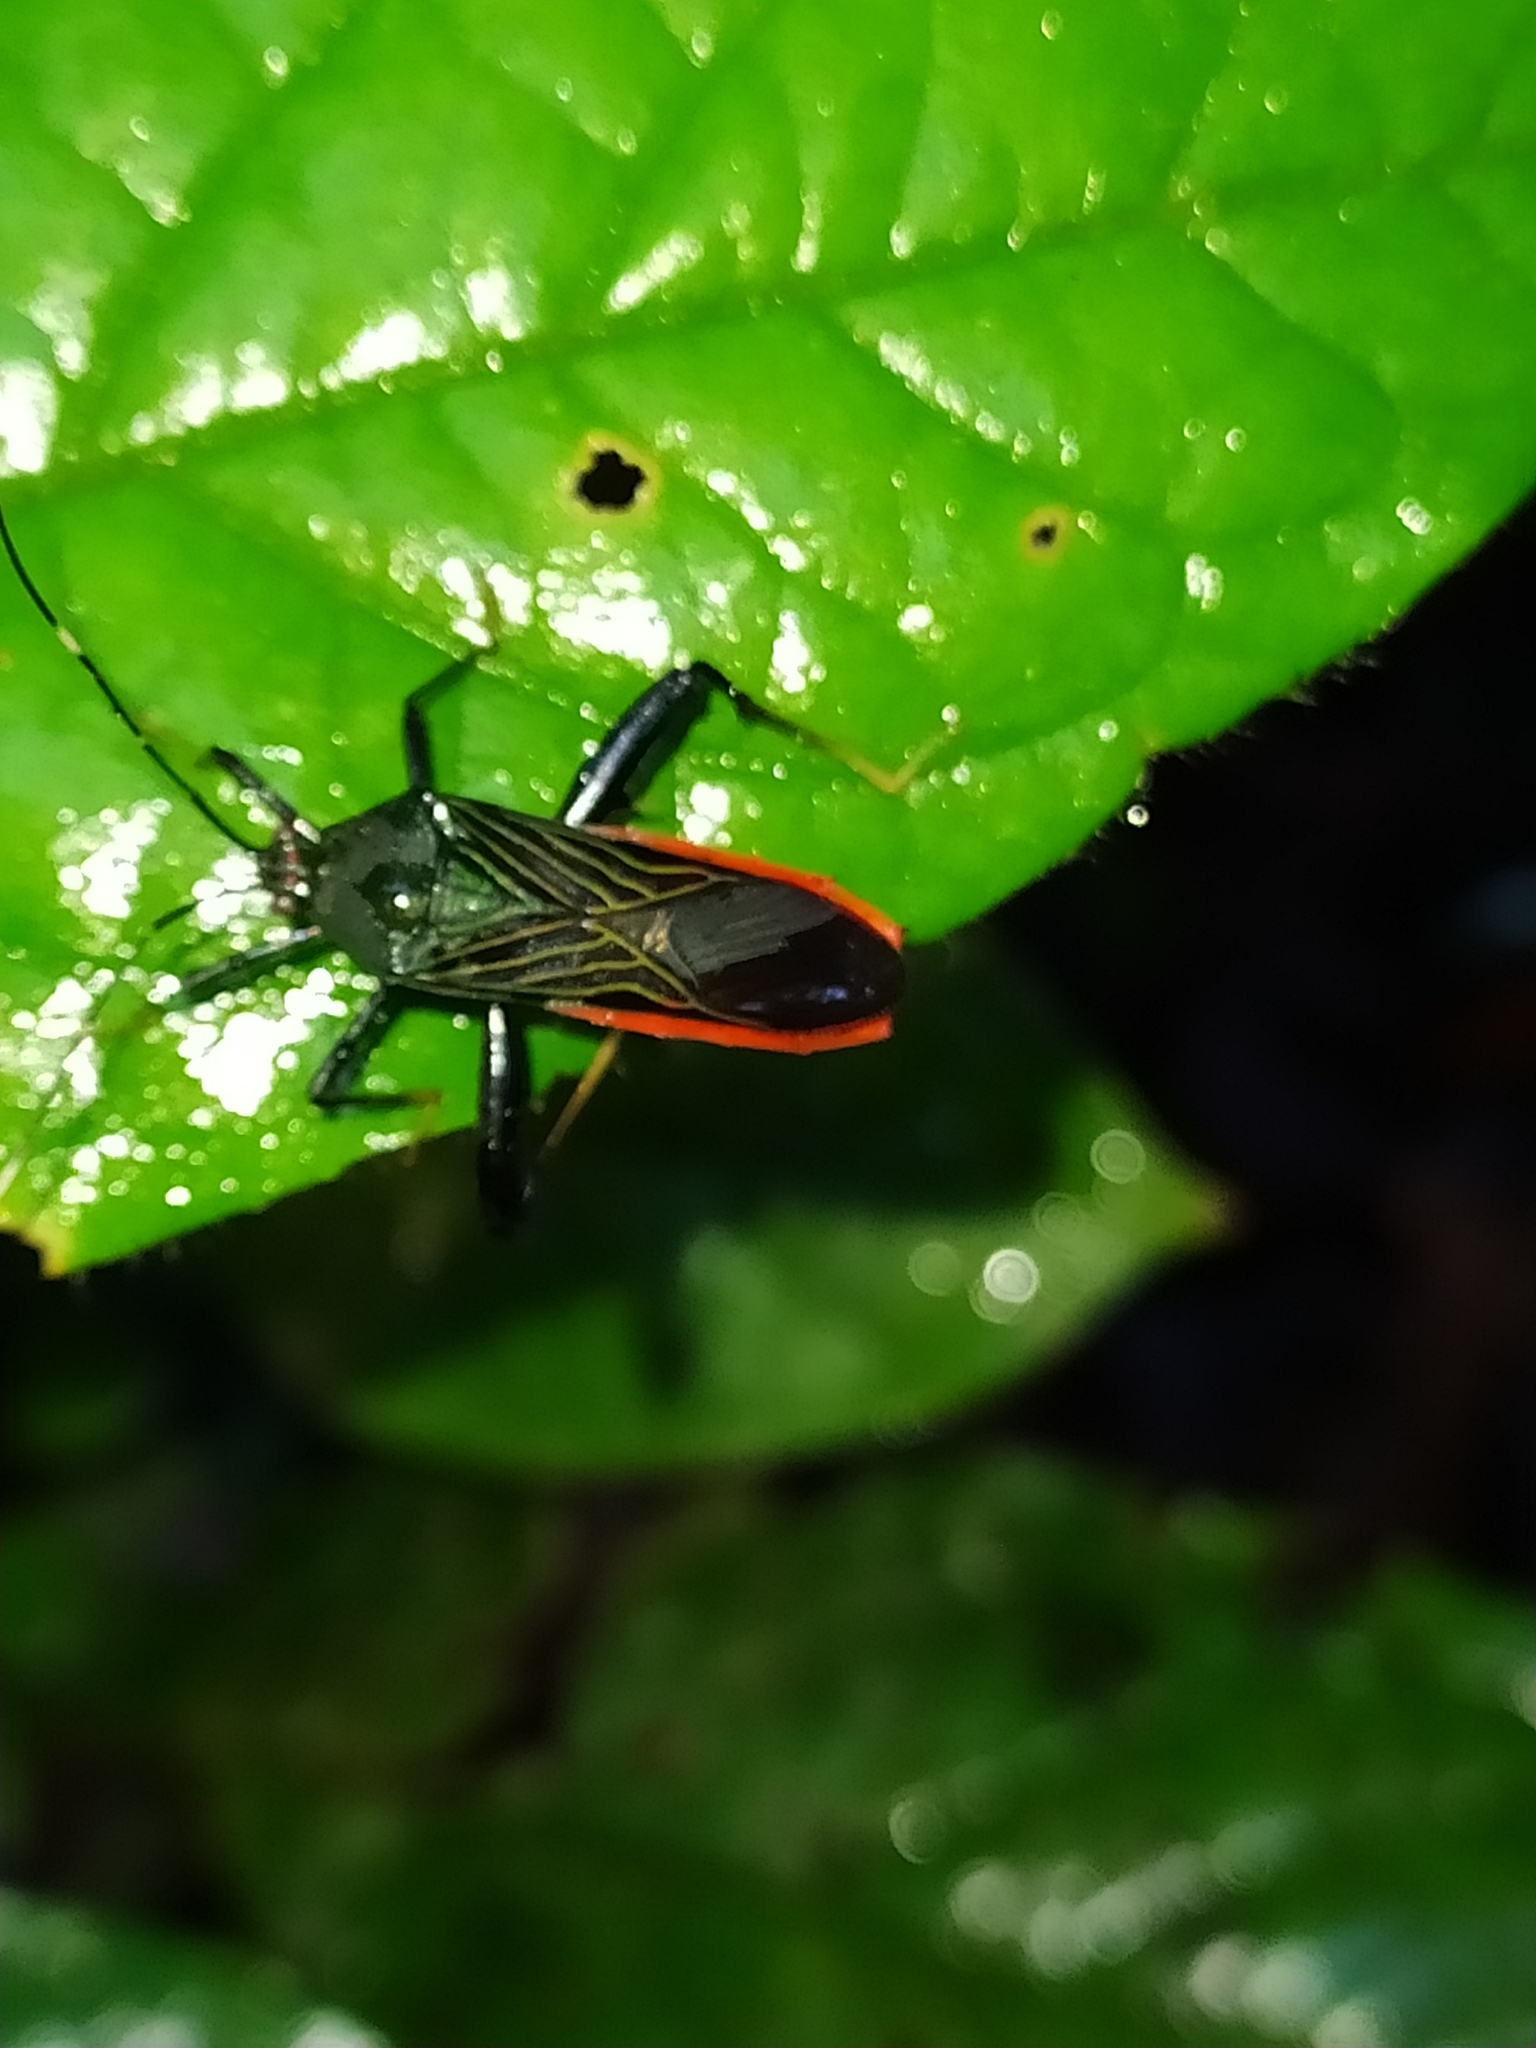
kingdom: Animalia
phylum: Arthropoda
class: Insecta
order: Hemiptera
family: Coreidae
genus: Nematopus
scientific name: Nematopus indus
